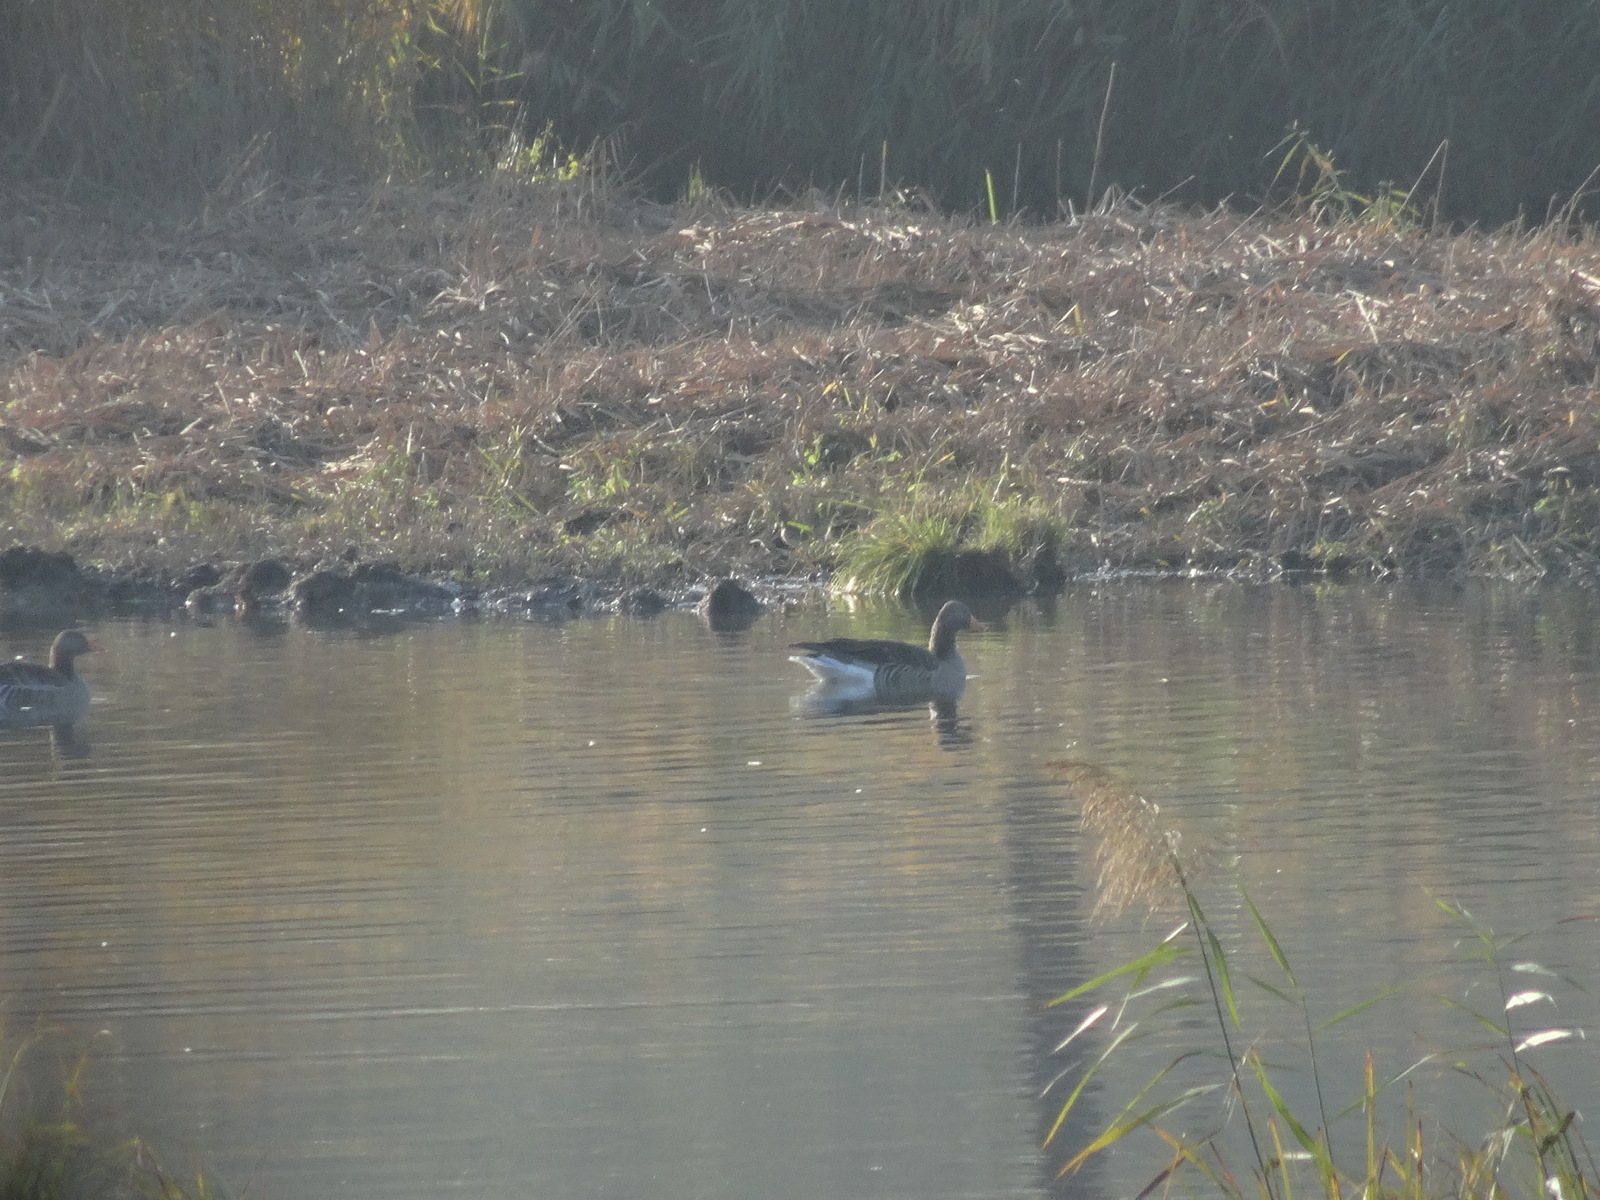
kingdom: Animalia
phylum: Chordata
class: Aves
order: Anseriformes
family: Anatidae
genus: Anser
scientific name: Anser anser
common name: Greylag goose
